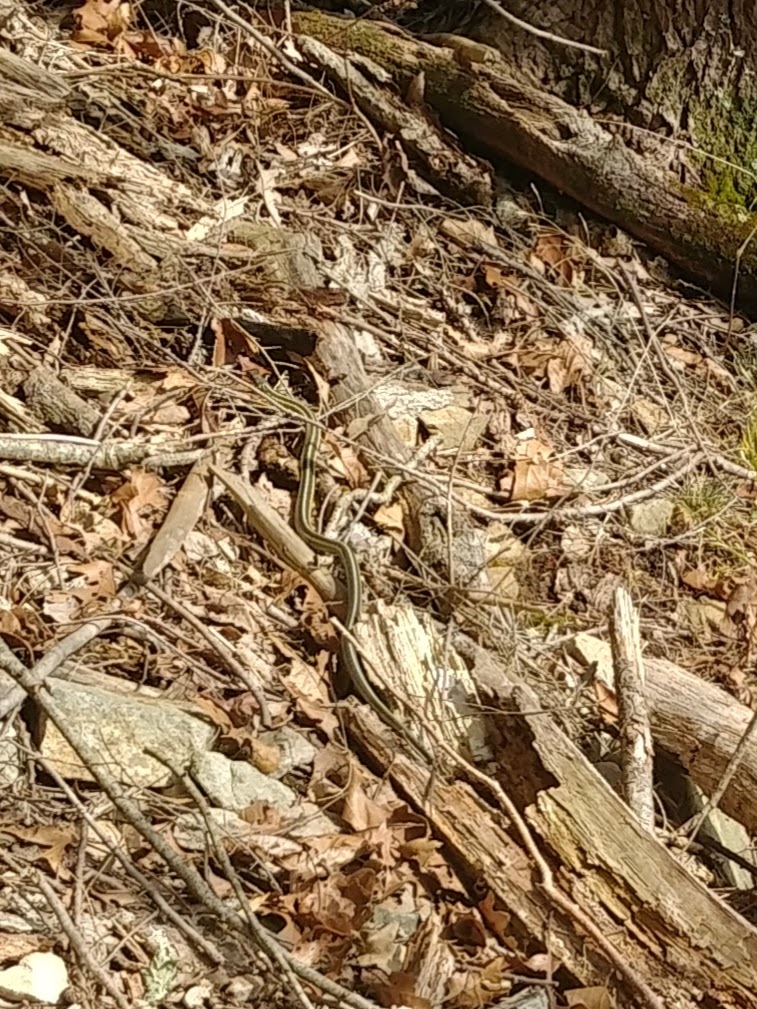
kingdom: Animalia
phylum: Chordata
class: Squamata
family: Colubridae
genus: Thamnophis
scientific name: Thamnophis sirtalis
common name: Common garter snake
